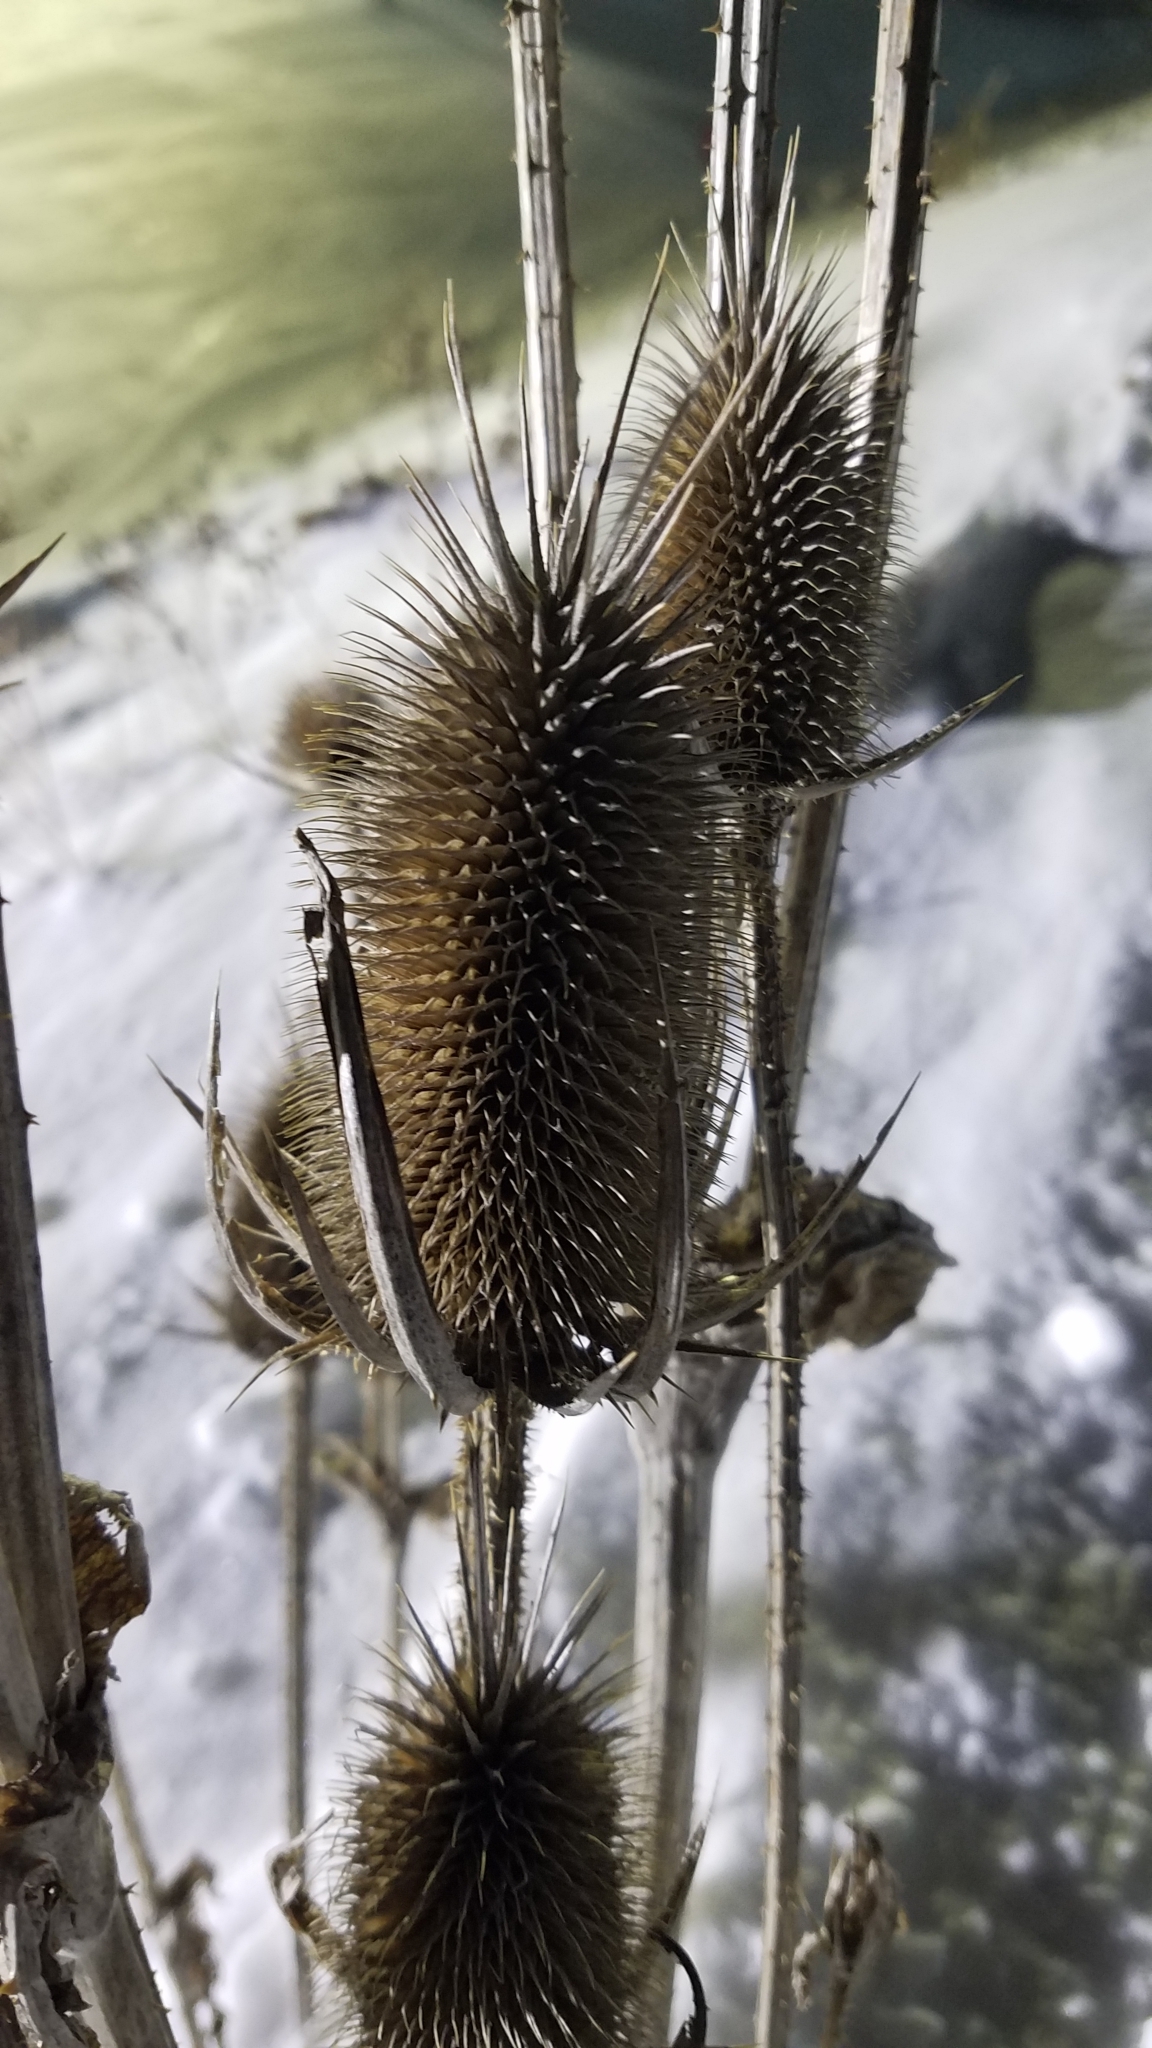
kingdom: Plantae
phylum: Tracheophyta
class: Magnoliopsida
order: Dipsacales
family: Caprifoliaceae
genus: Dipsacus
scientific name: Dipsacus laciniatus
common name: Cut-leaved teasel
